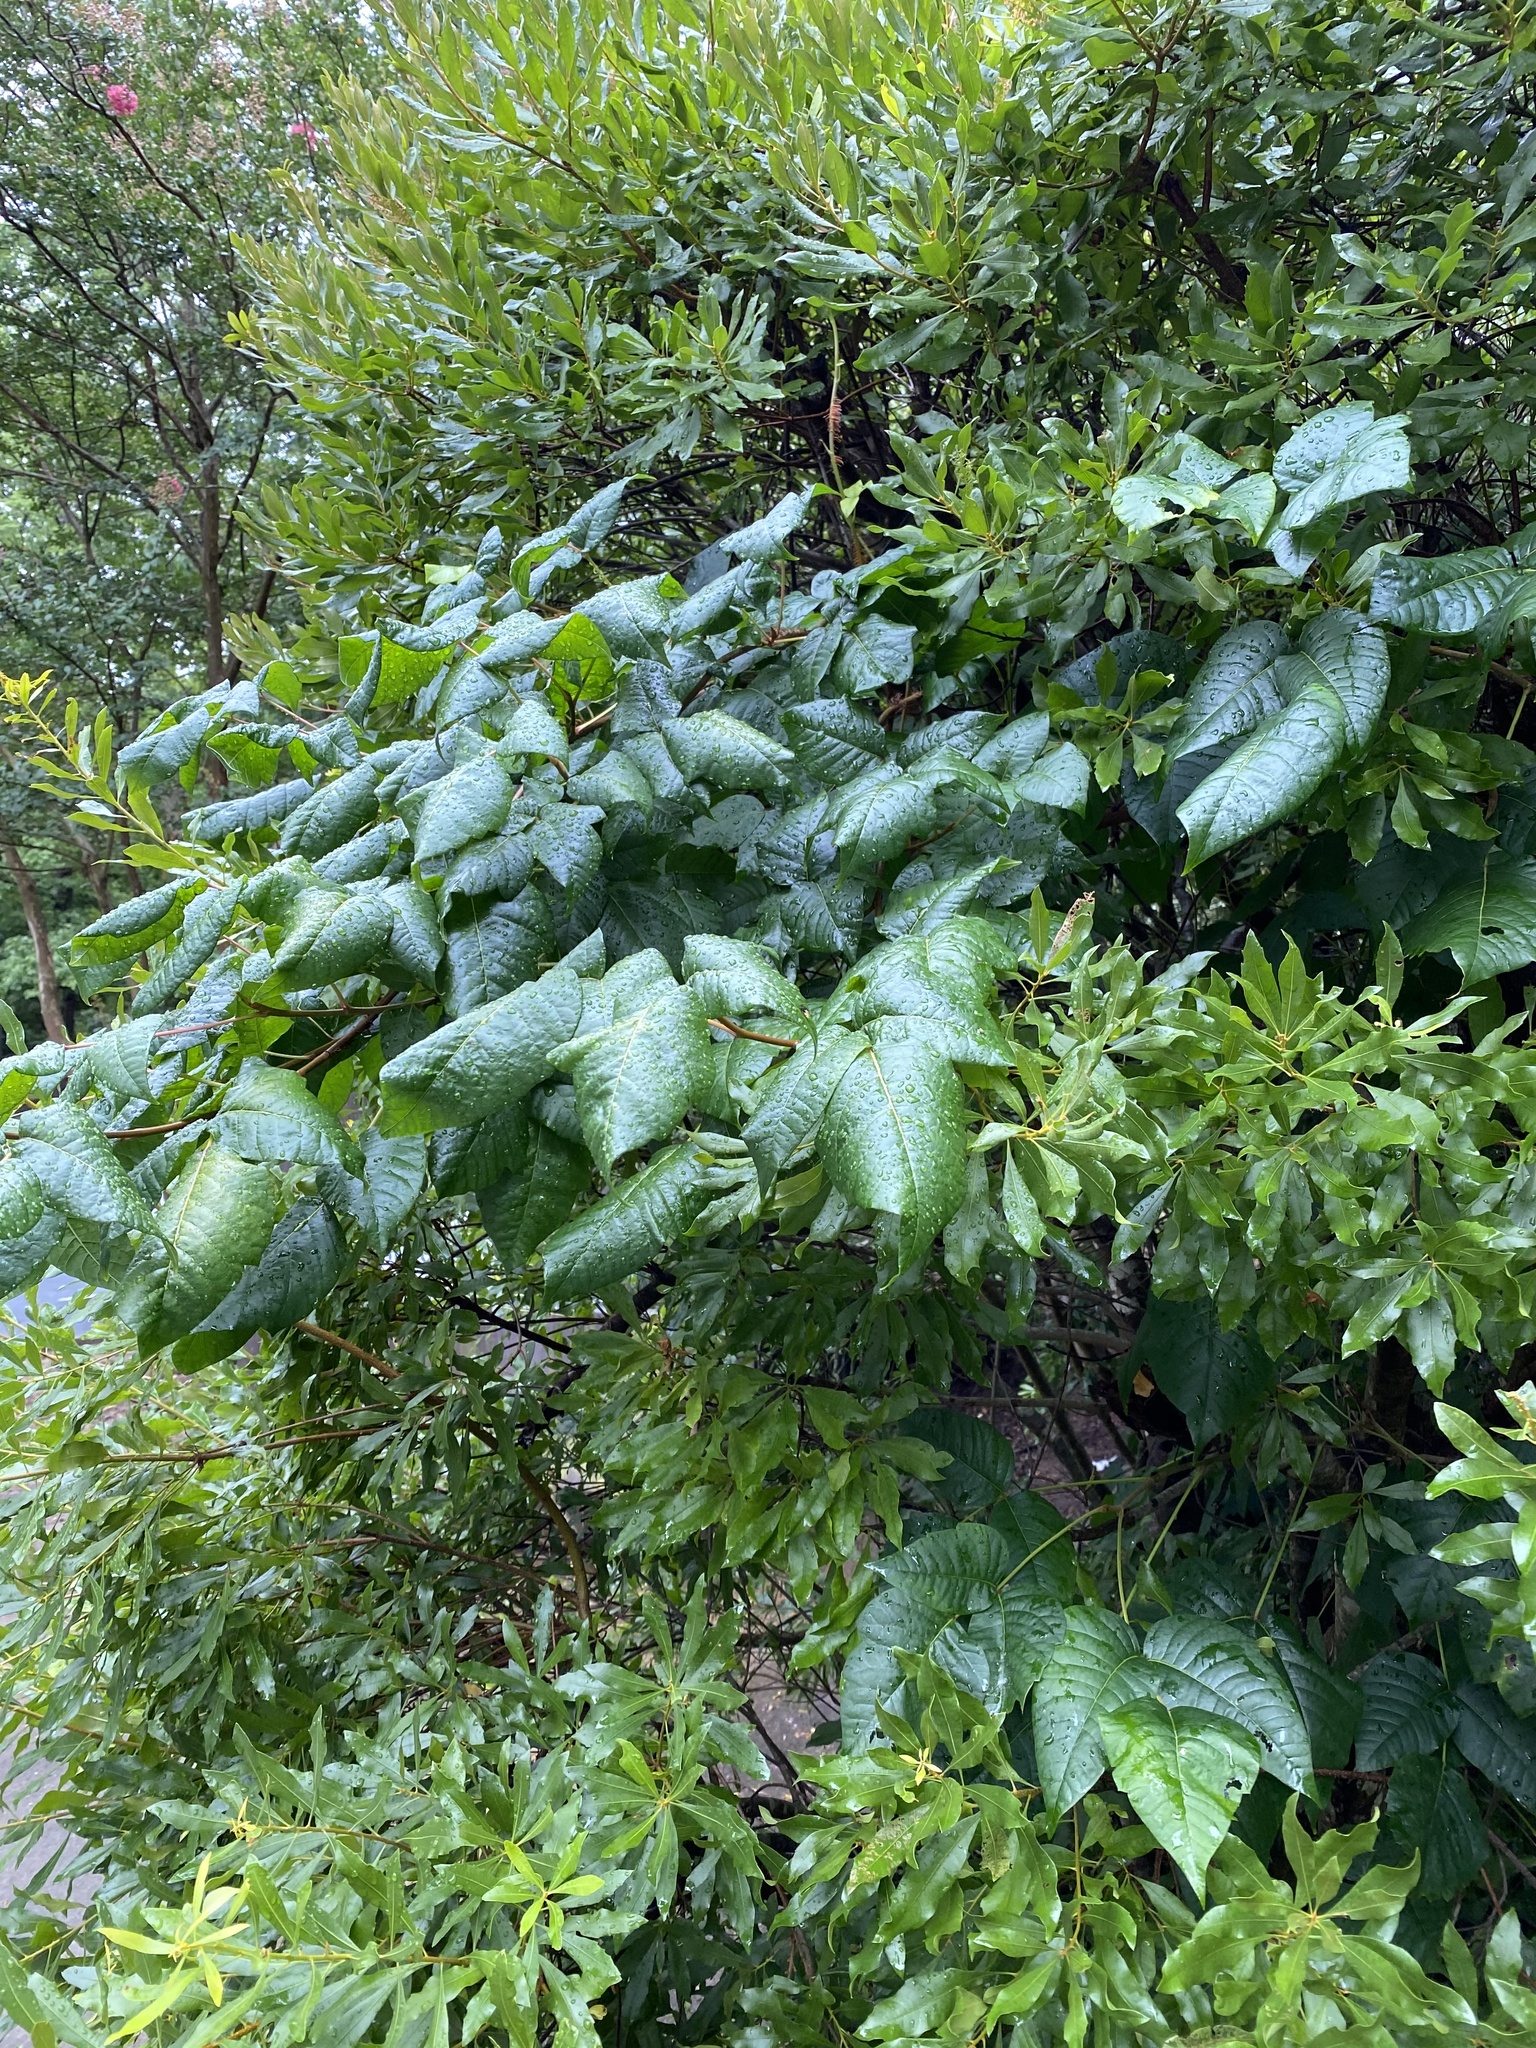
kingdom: Plantae
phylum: Tracheophyta
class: Magnoliopsida
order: Sapindales
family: Anacardiaceae
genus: Toxicodendron
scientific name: Toxicodendron radicans
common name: Poison ivy
